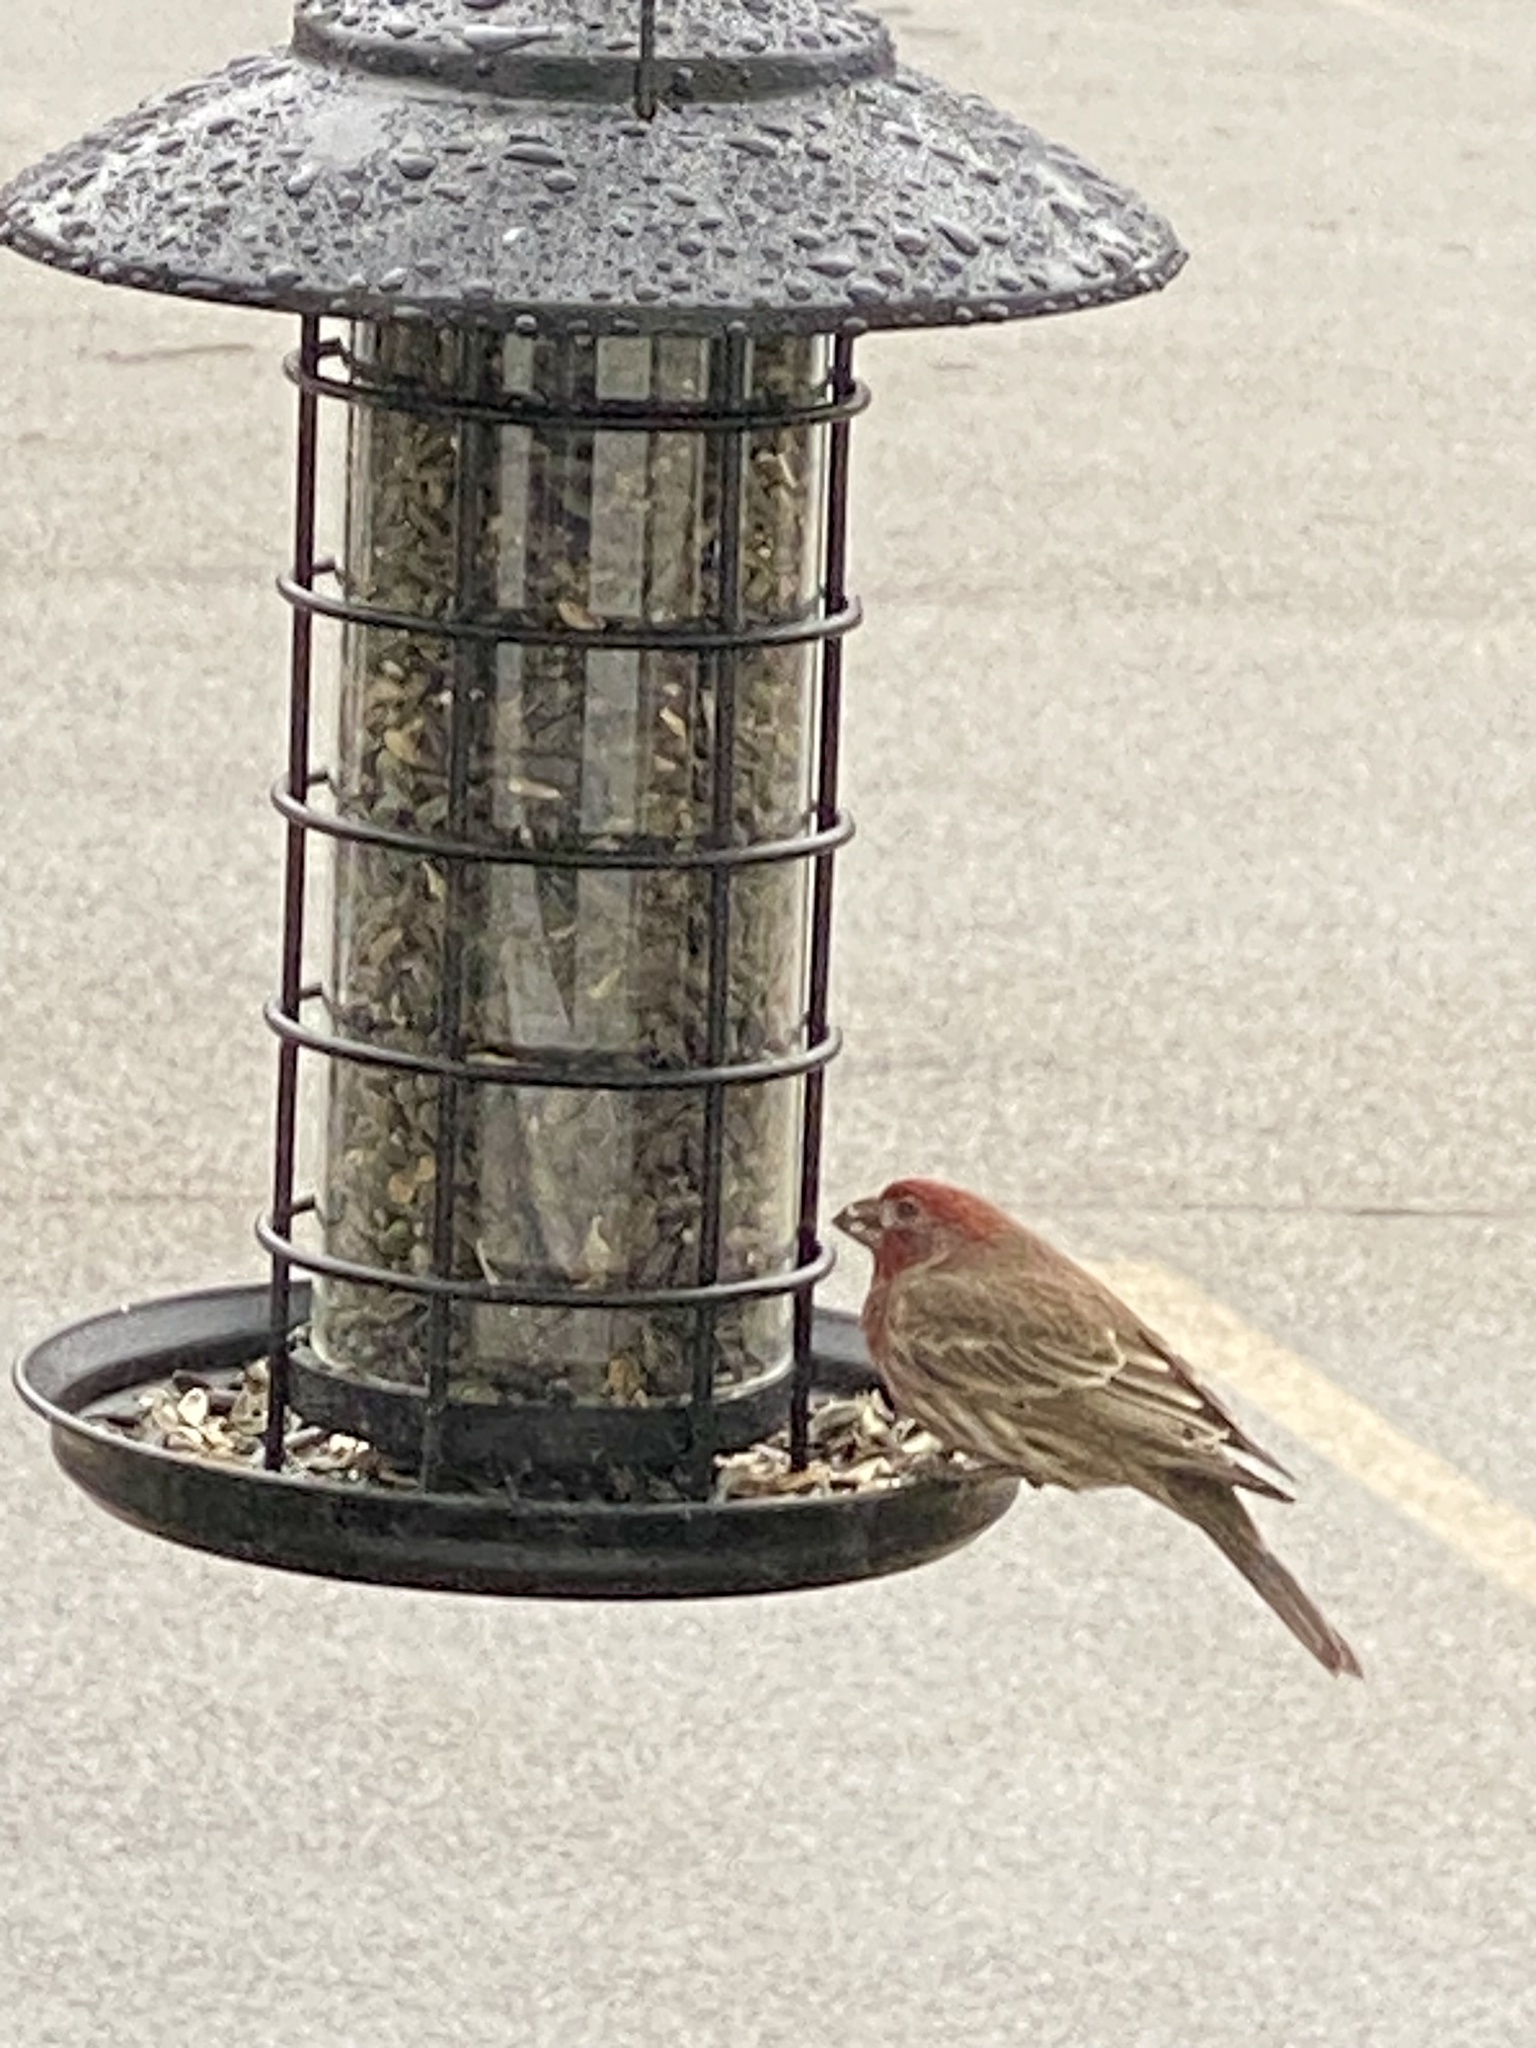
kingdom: Animalia
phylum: Chordata
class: Aves
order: Passeriformes
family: Fringillidae
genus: Haemorhous
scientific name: Haemorhous mexicanus
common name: House finch
